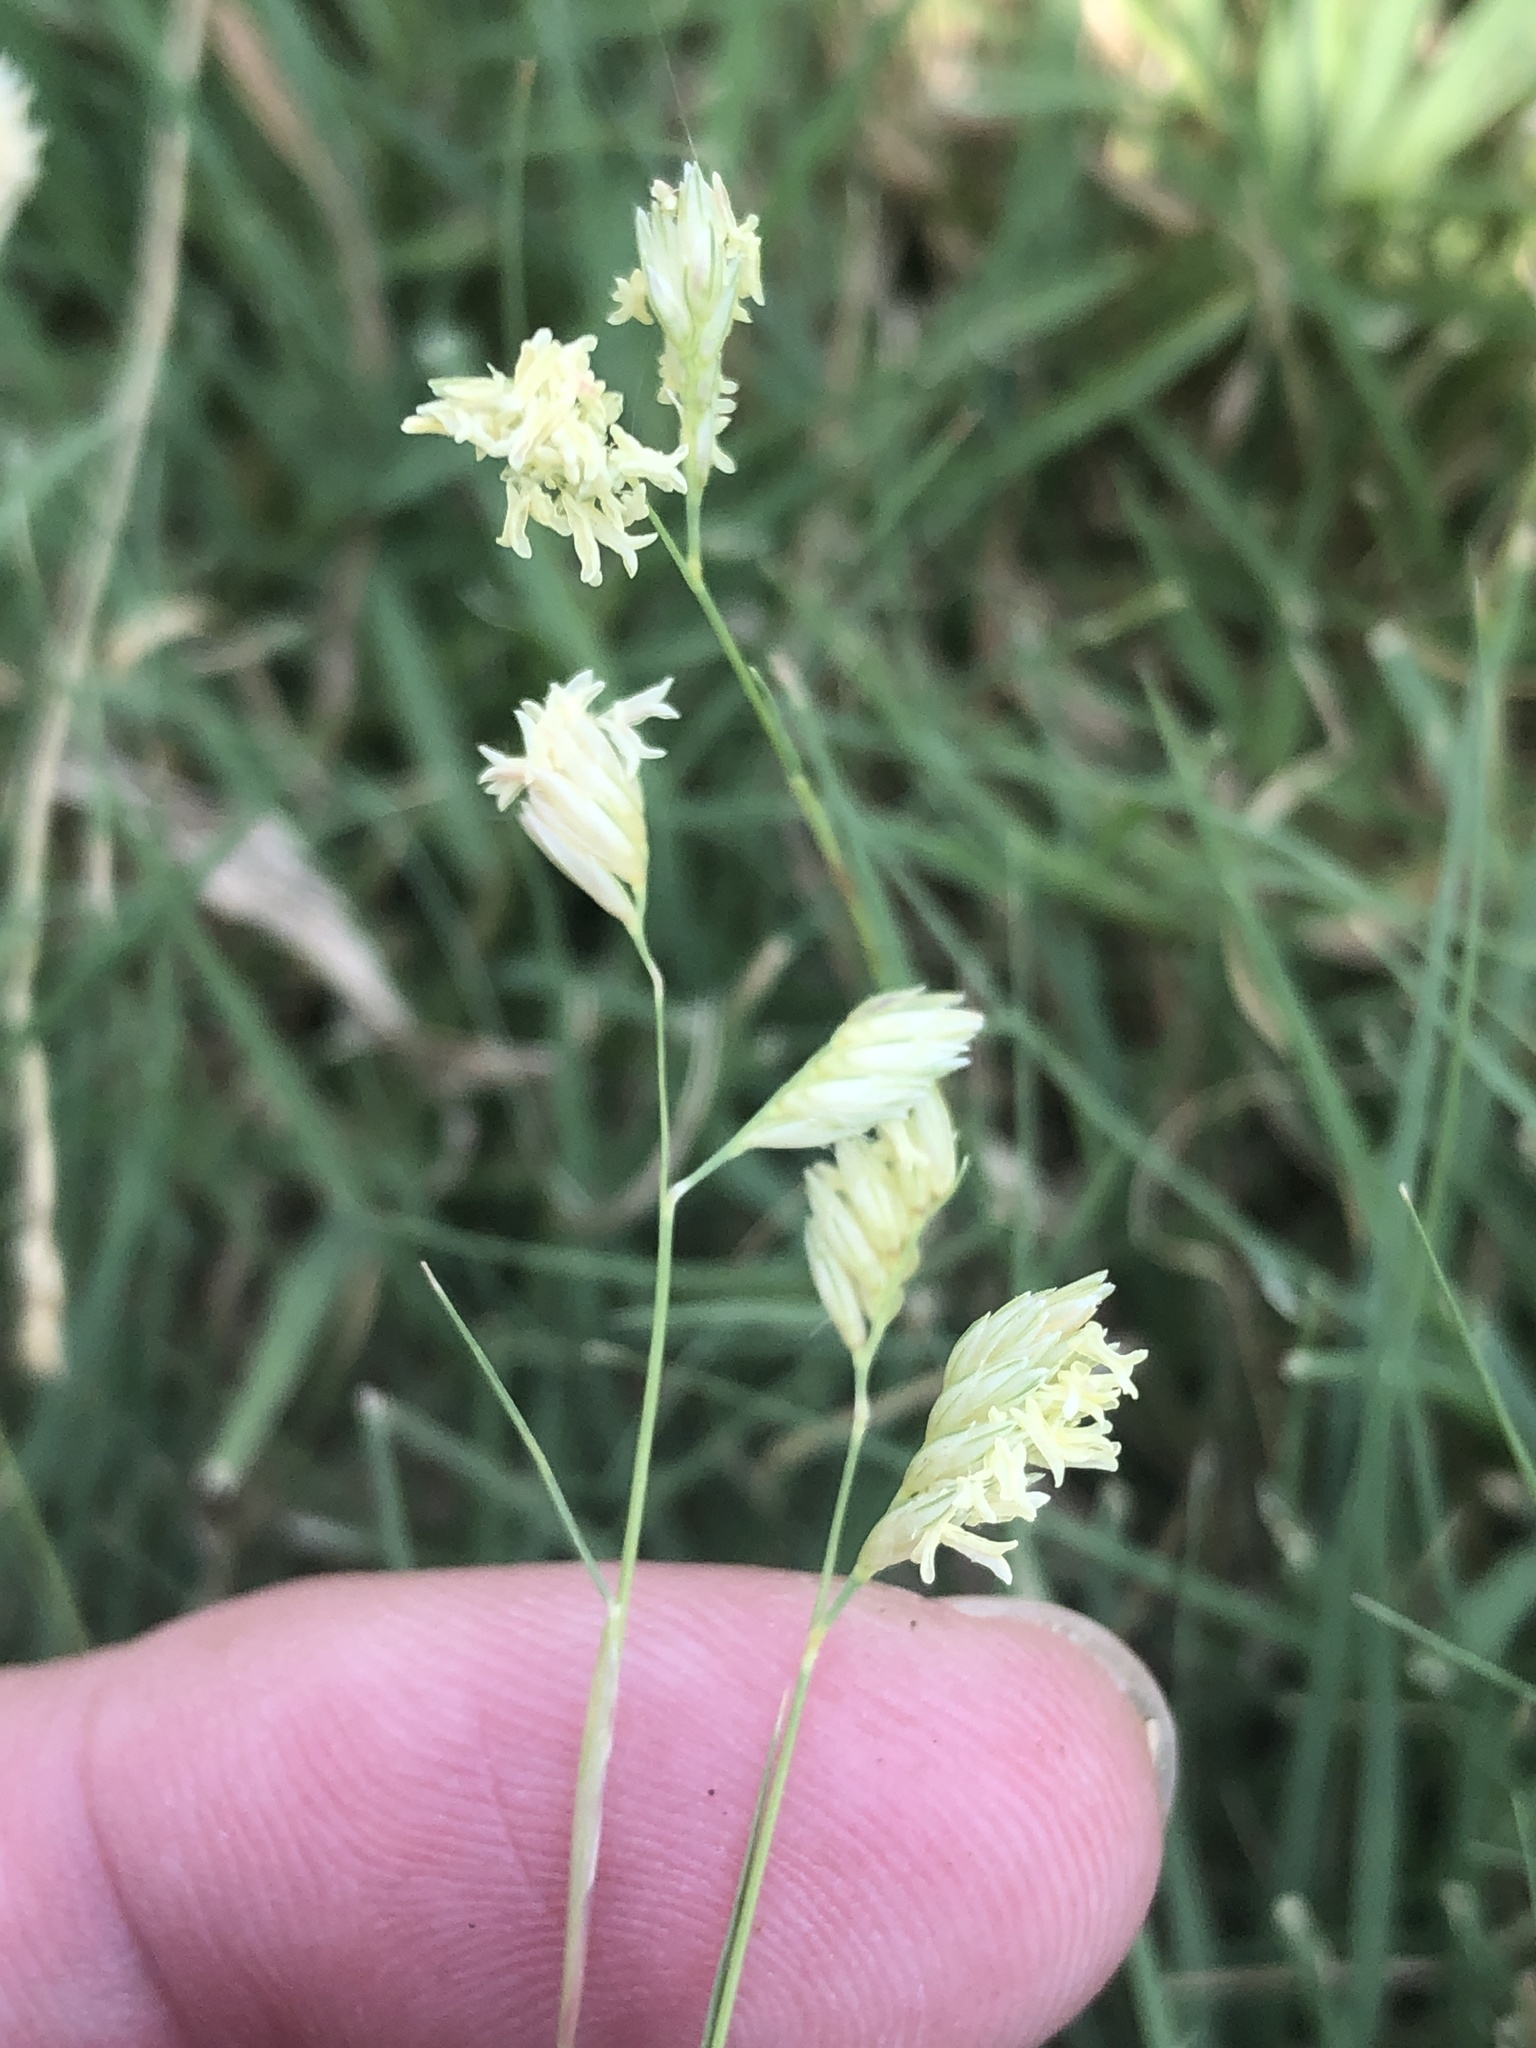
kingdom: Plantae
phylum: Tracheophyta
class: Liliopsida
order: Poales
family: Poaceae
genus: Bouteloua
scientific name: Bouteloua dactyloides
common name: Buffalo grass
